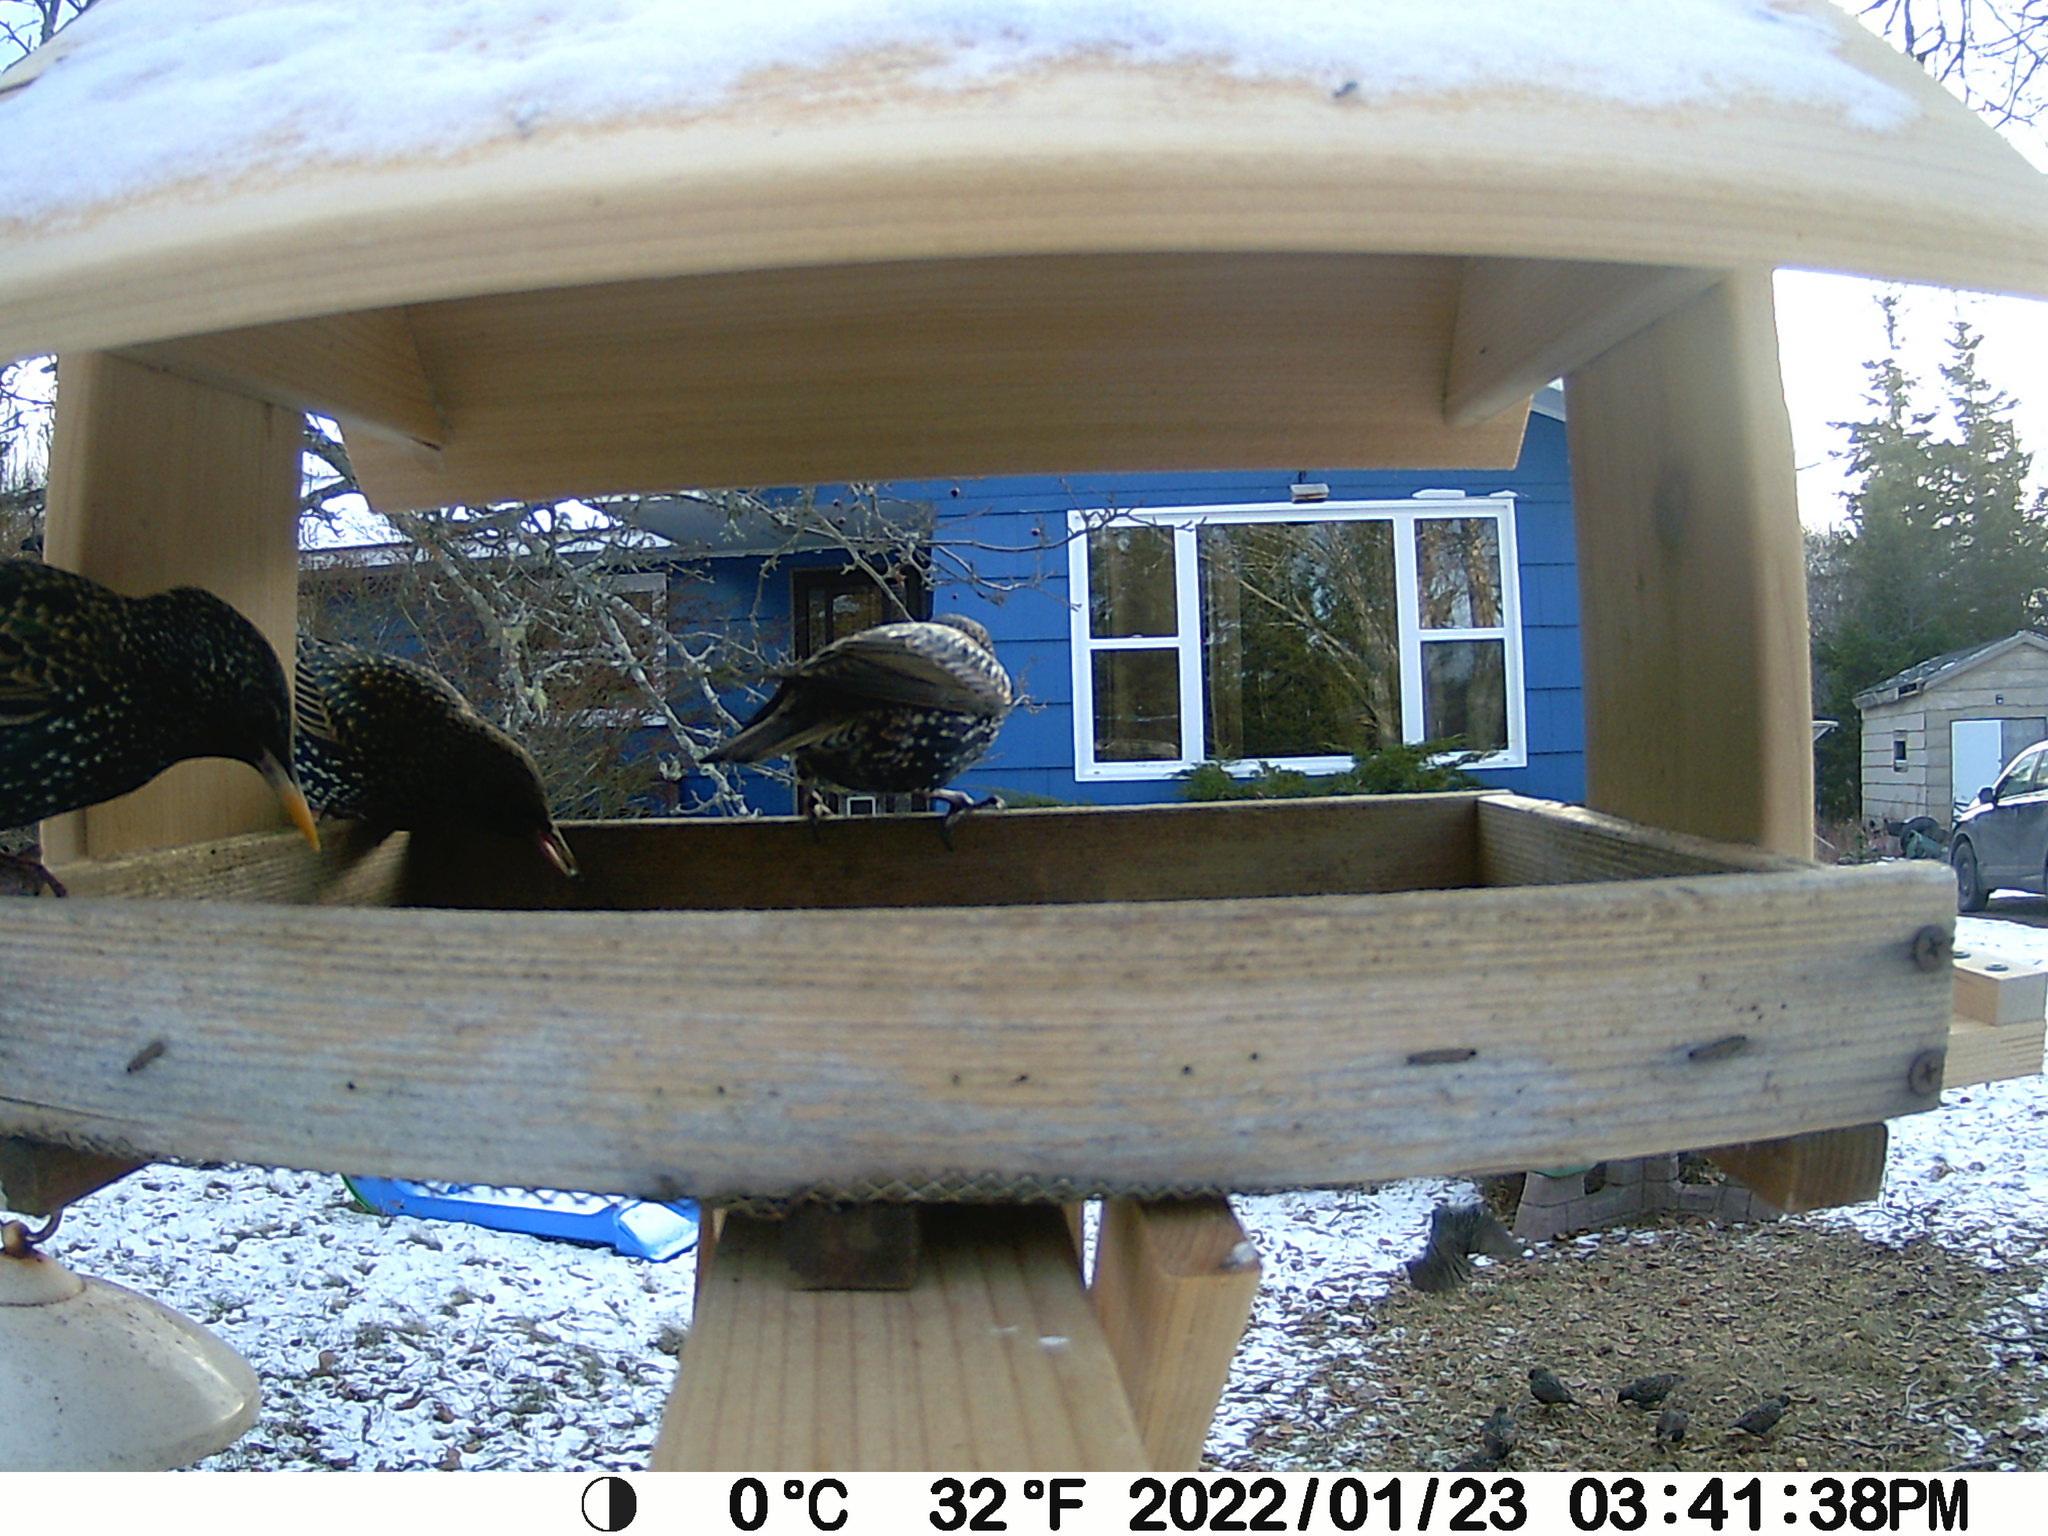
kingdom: Animalia
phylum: Chordata
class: Aves
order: Passeriformes
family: Sturnidae
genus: Sturnus
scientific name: Sturnus vulgaris
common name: Common starling
